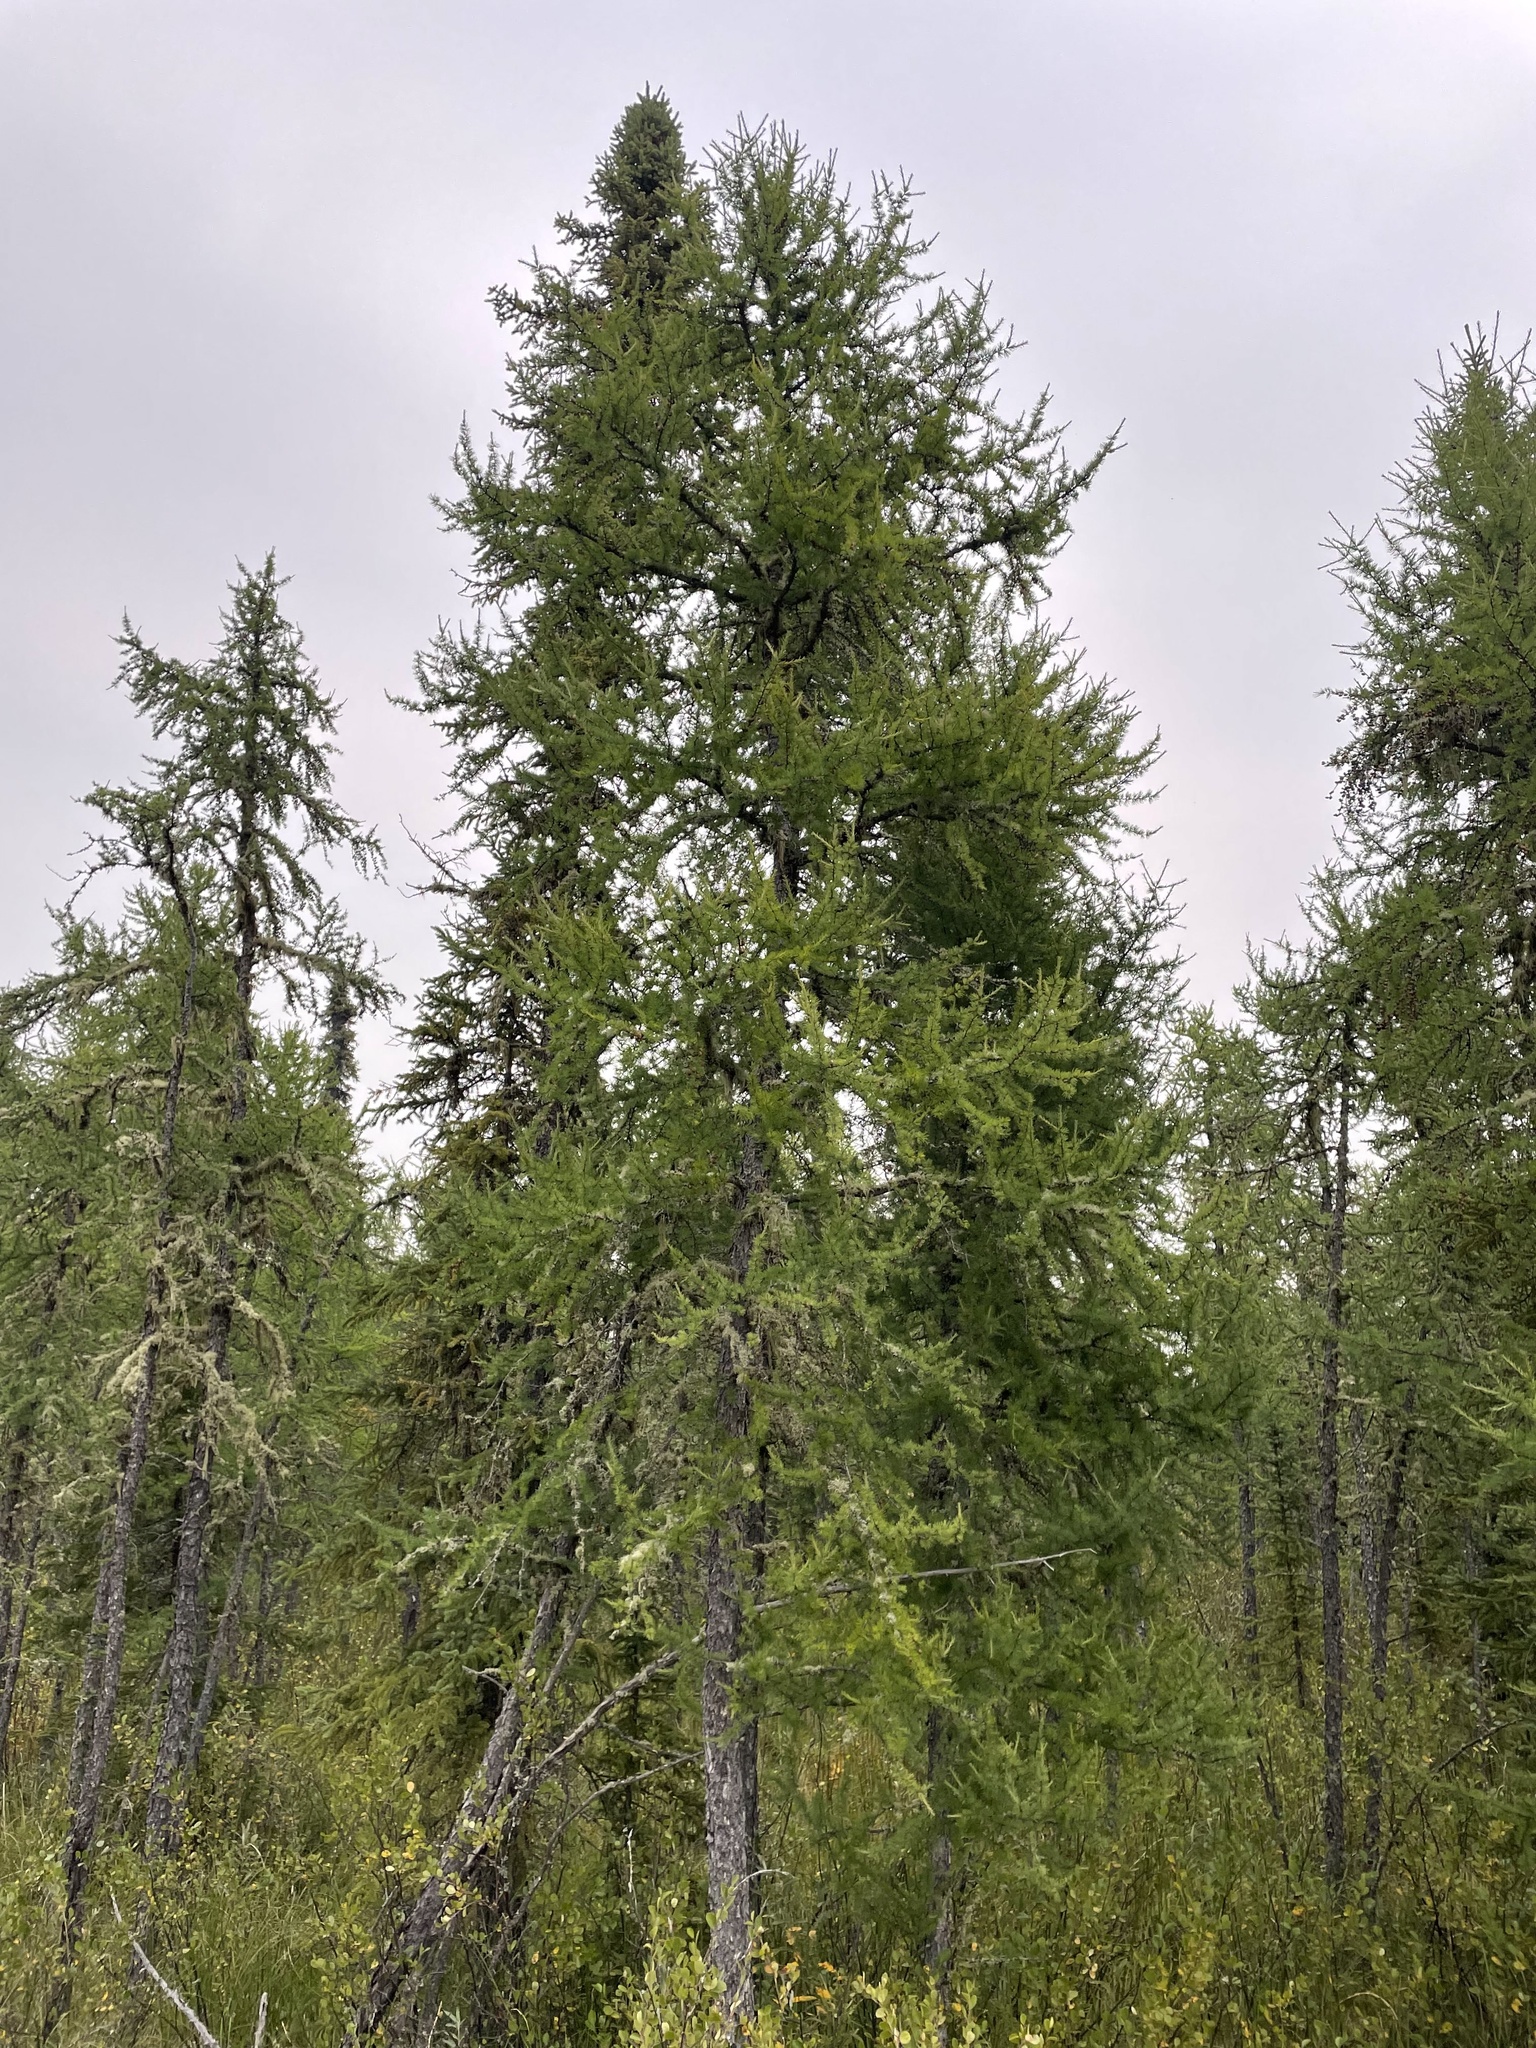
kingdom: Plantae
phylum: Tracheophyta
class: Pinopsida
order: Pinales
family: Pinaceae
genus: Larix
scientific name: Larix laricina
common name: American larch
